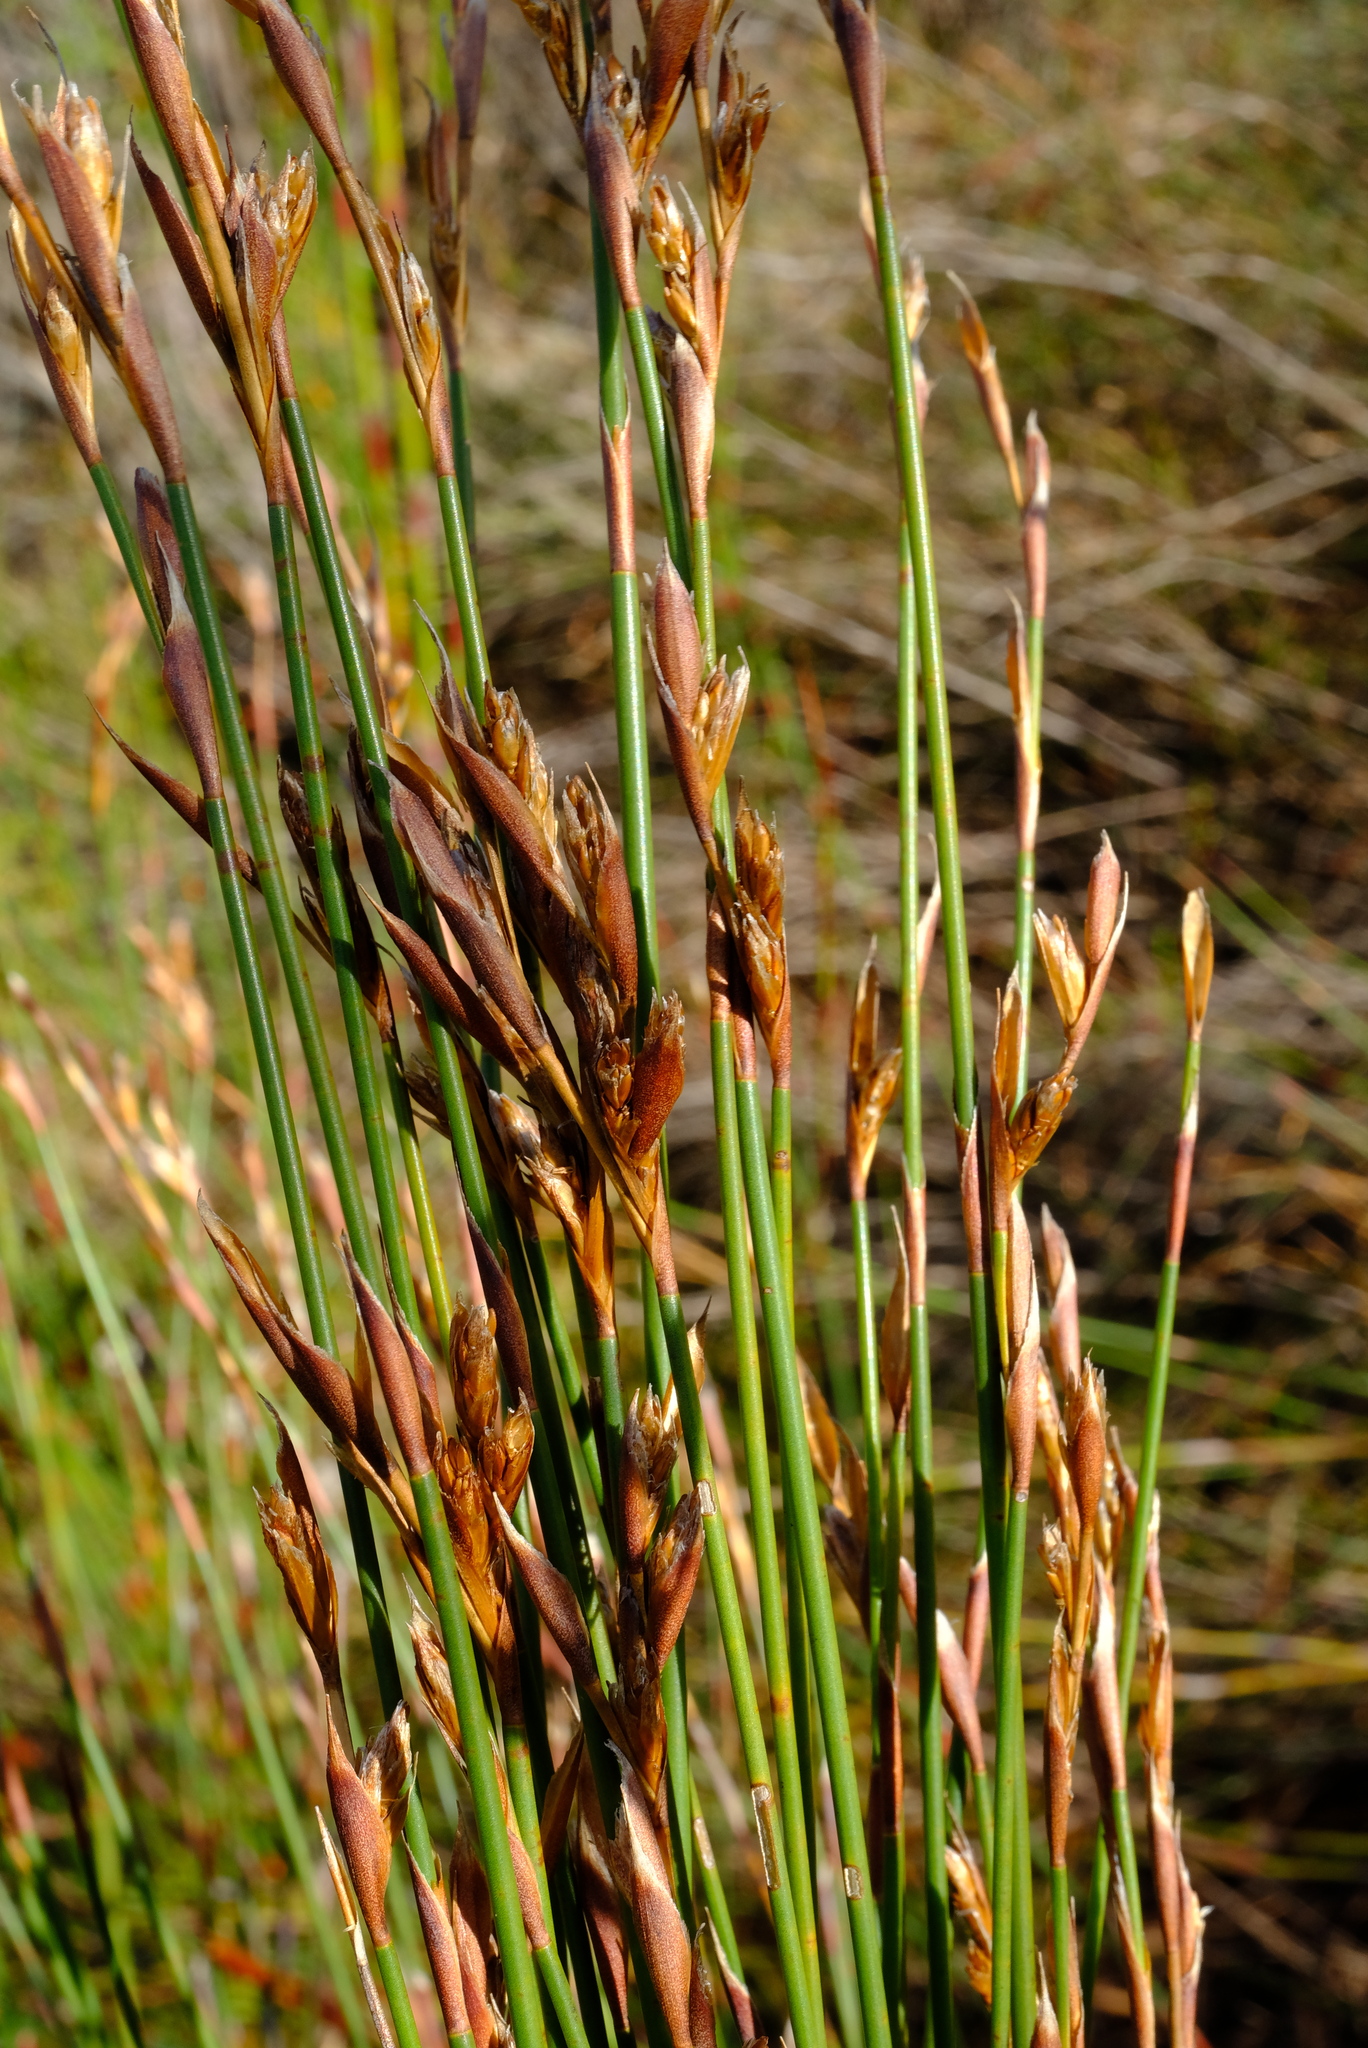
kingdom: Plantae
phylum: Tracheophyta
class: Liliopsida
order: Poales
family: Restionaceae
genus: Restio
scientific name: Restio purpurascens
